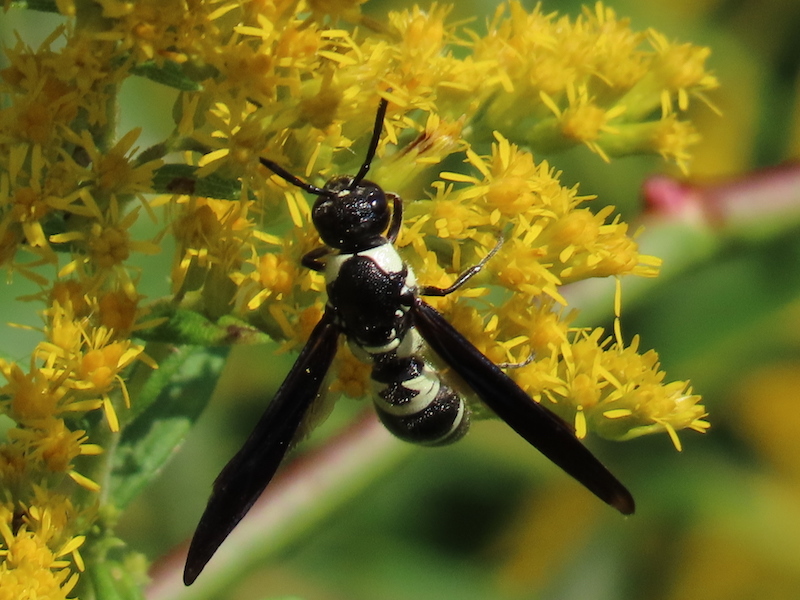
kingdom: Animalia
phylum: Arthropoda
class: Insecta
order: Hymenoptera
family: Eumenidae
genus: Pseudodynerus
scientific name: Pseudodynerus quadrisectus
